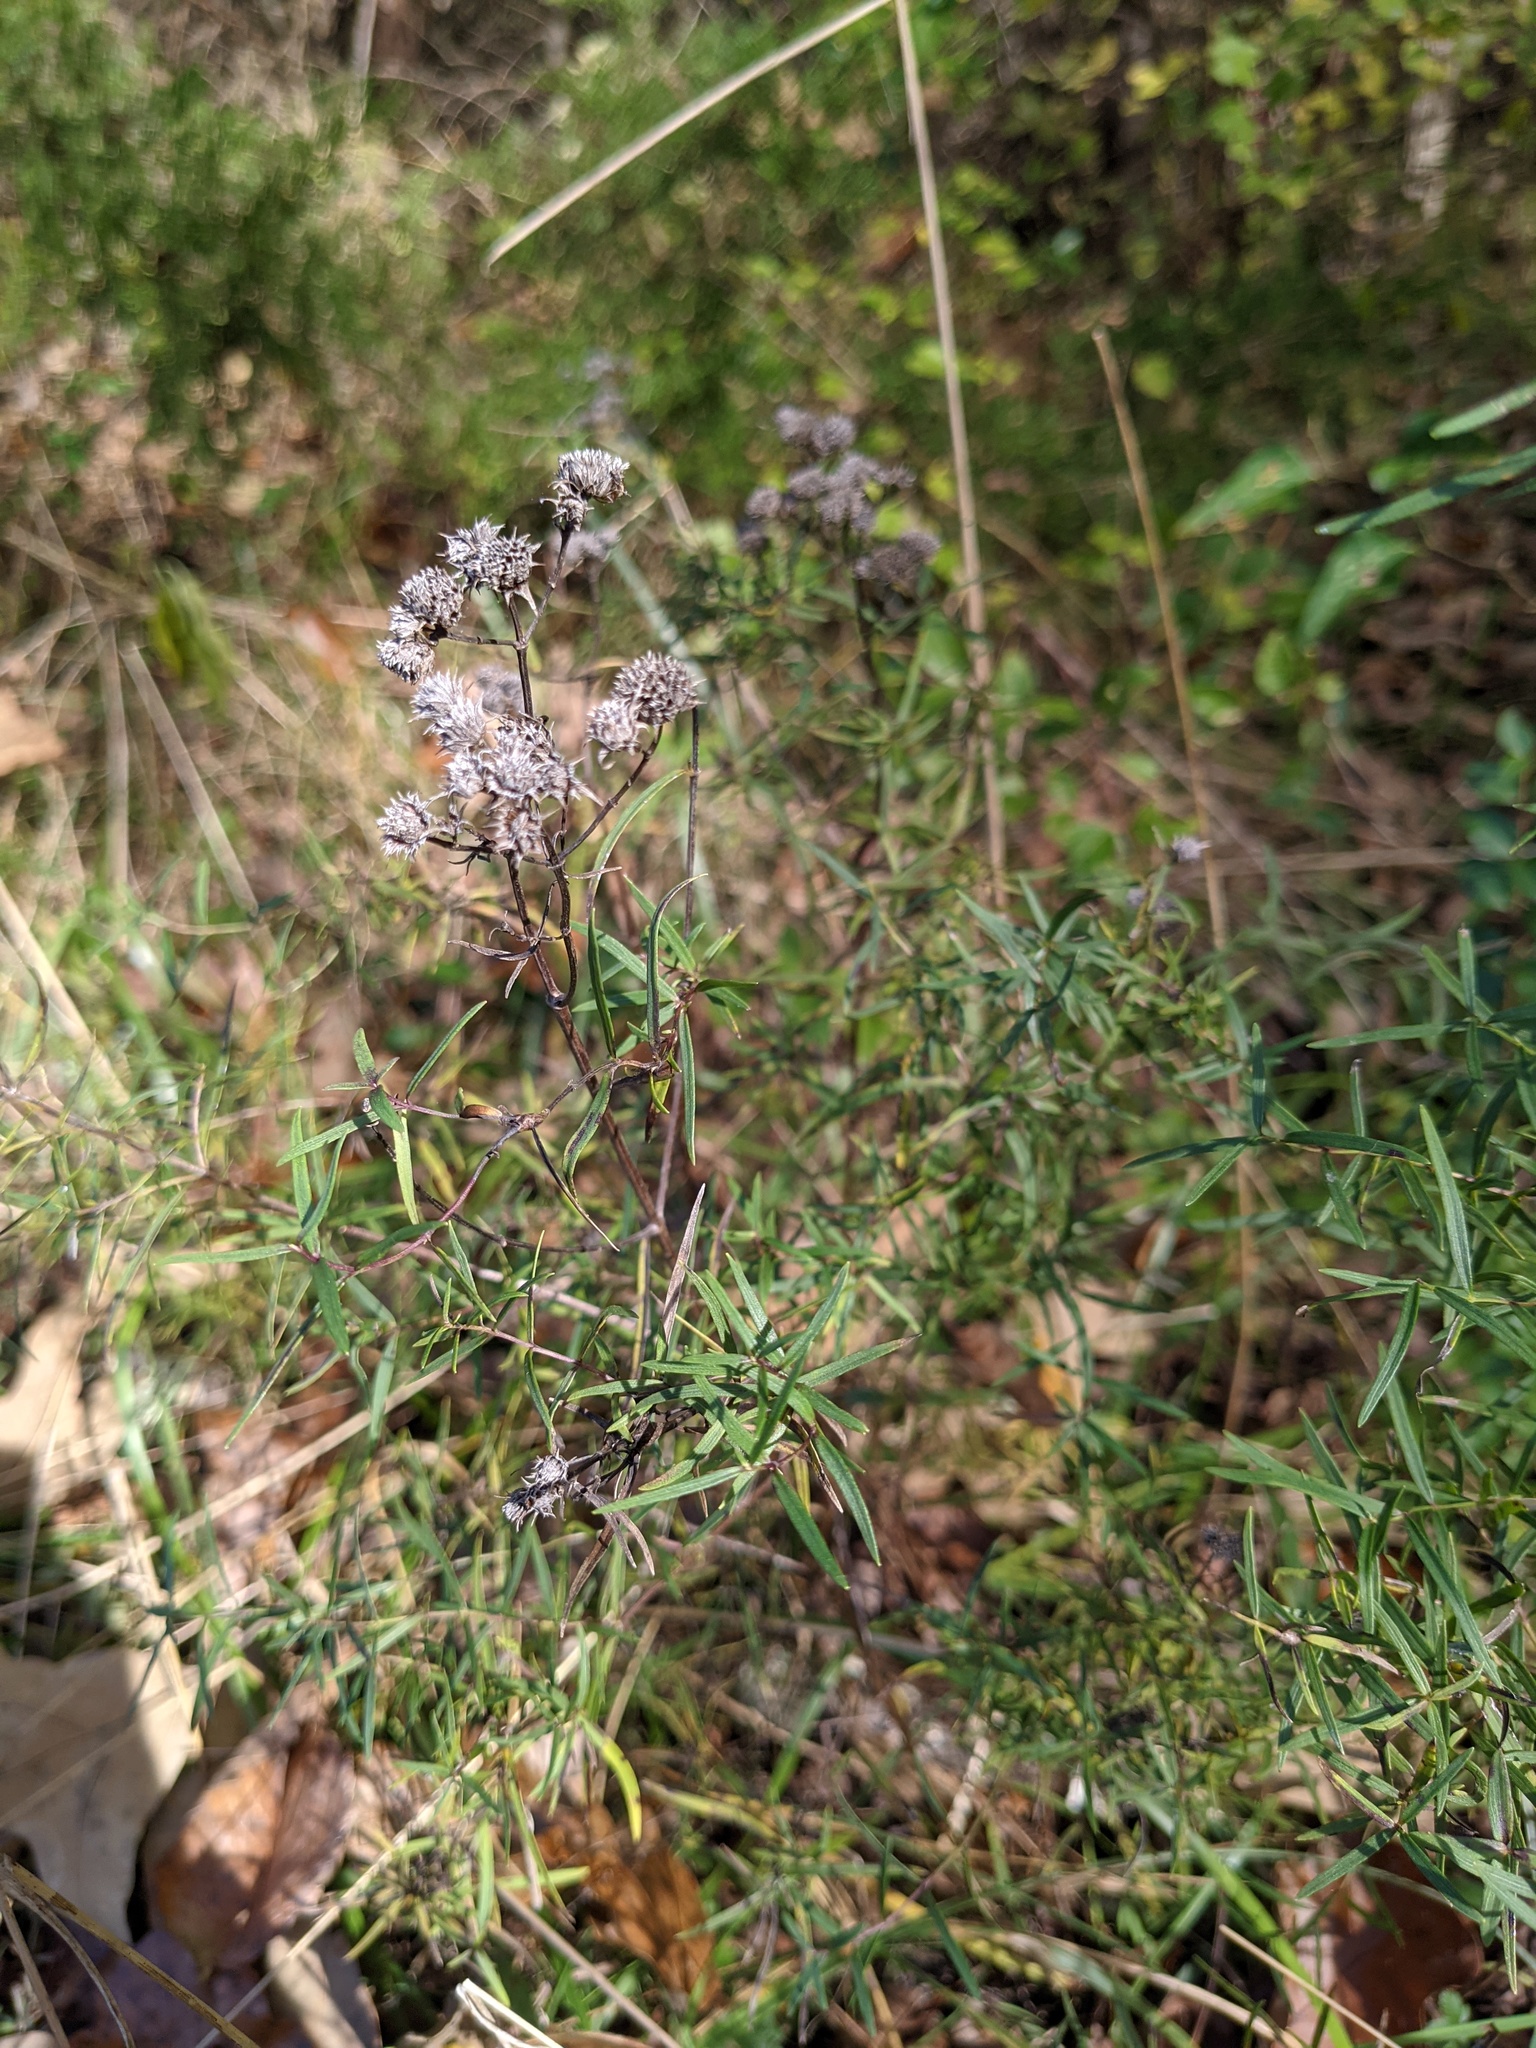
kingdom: Plantae
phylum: Tracheophyta
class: Magnoliopsida
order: Lamiales
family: Lamiaceae
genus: Pycnanthemum
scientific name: Pycnanthemum tenuifolium
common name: Narrow-leaf mountain-mint
